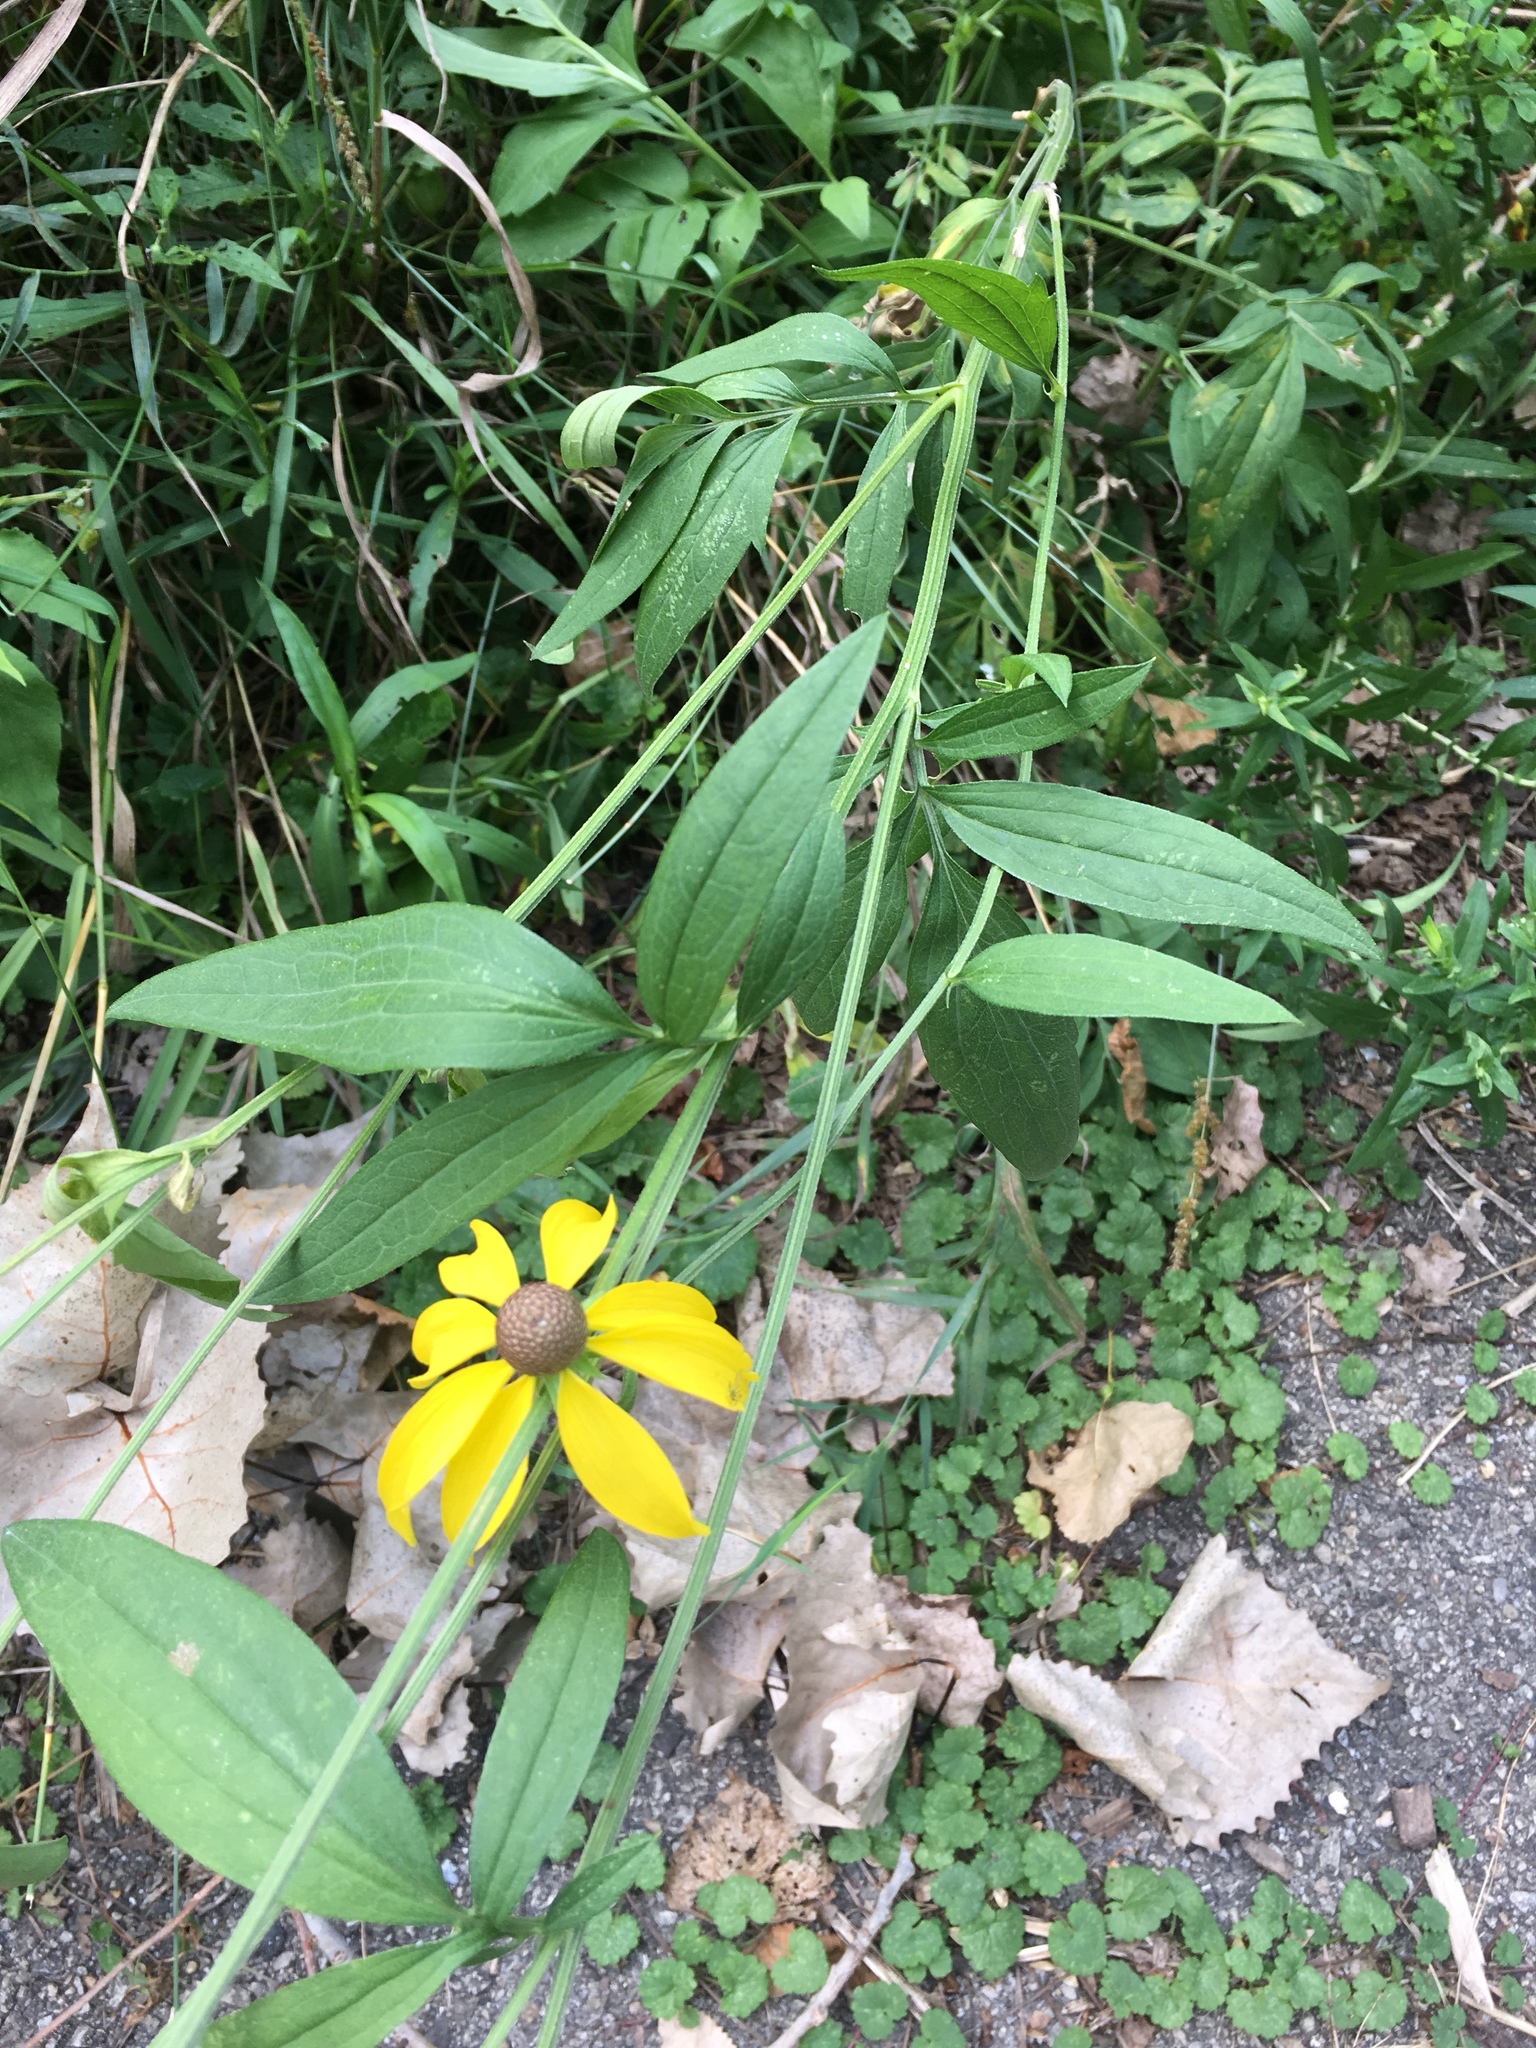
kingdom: Plantae
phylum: Tracheophyta
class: Magnoliopsida
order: Asterales
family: Asteraceae
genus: Ratibida
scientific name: Ratibida pinnata
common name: Drooping prairie-coneflower
